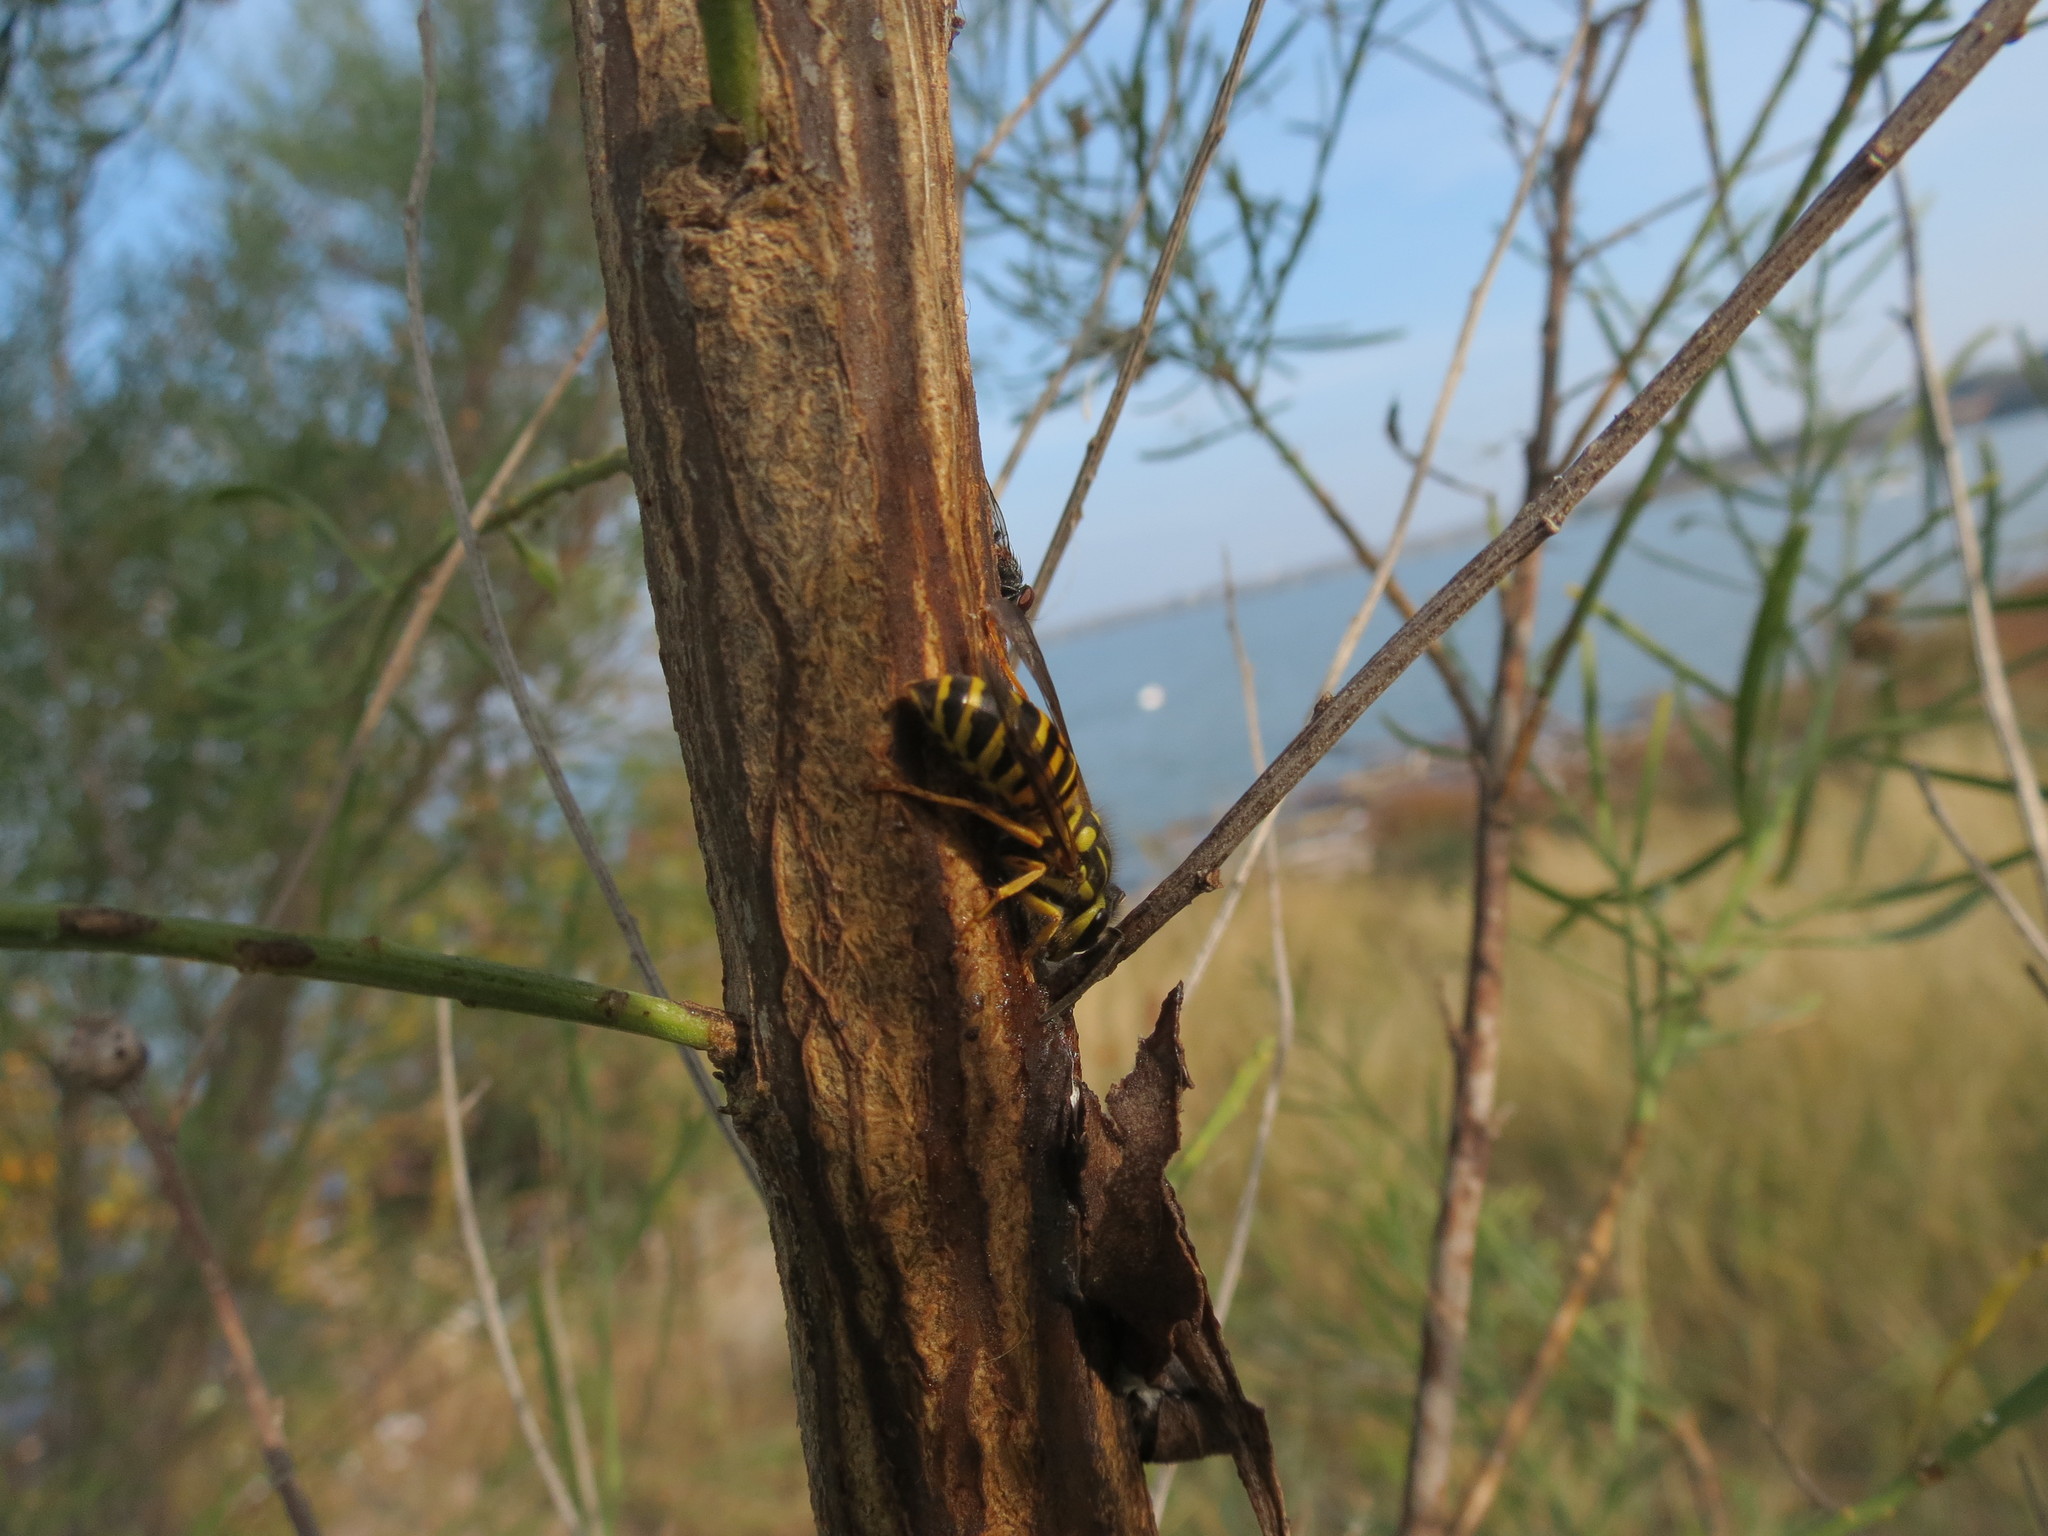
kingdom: Animalia
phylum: Arthropoda
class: Insecta
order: Hymenoptera
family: Vespidae
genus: Vespula
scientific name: Vespula squamosa
